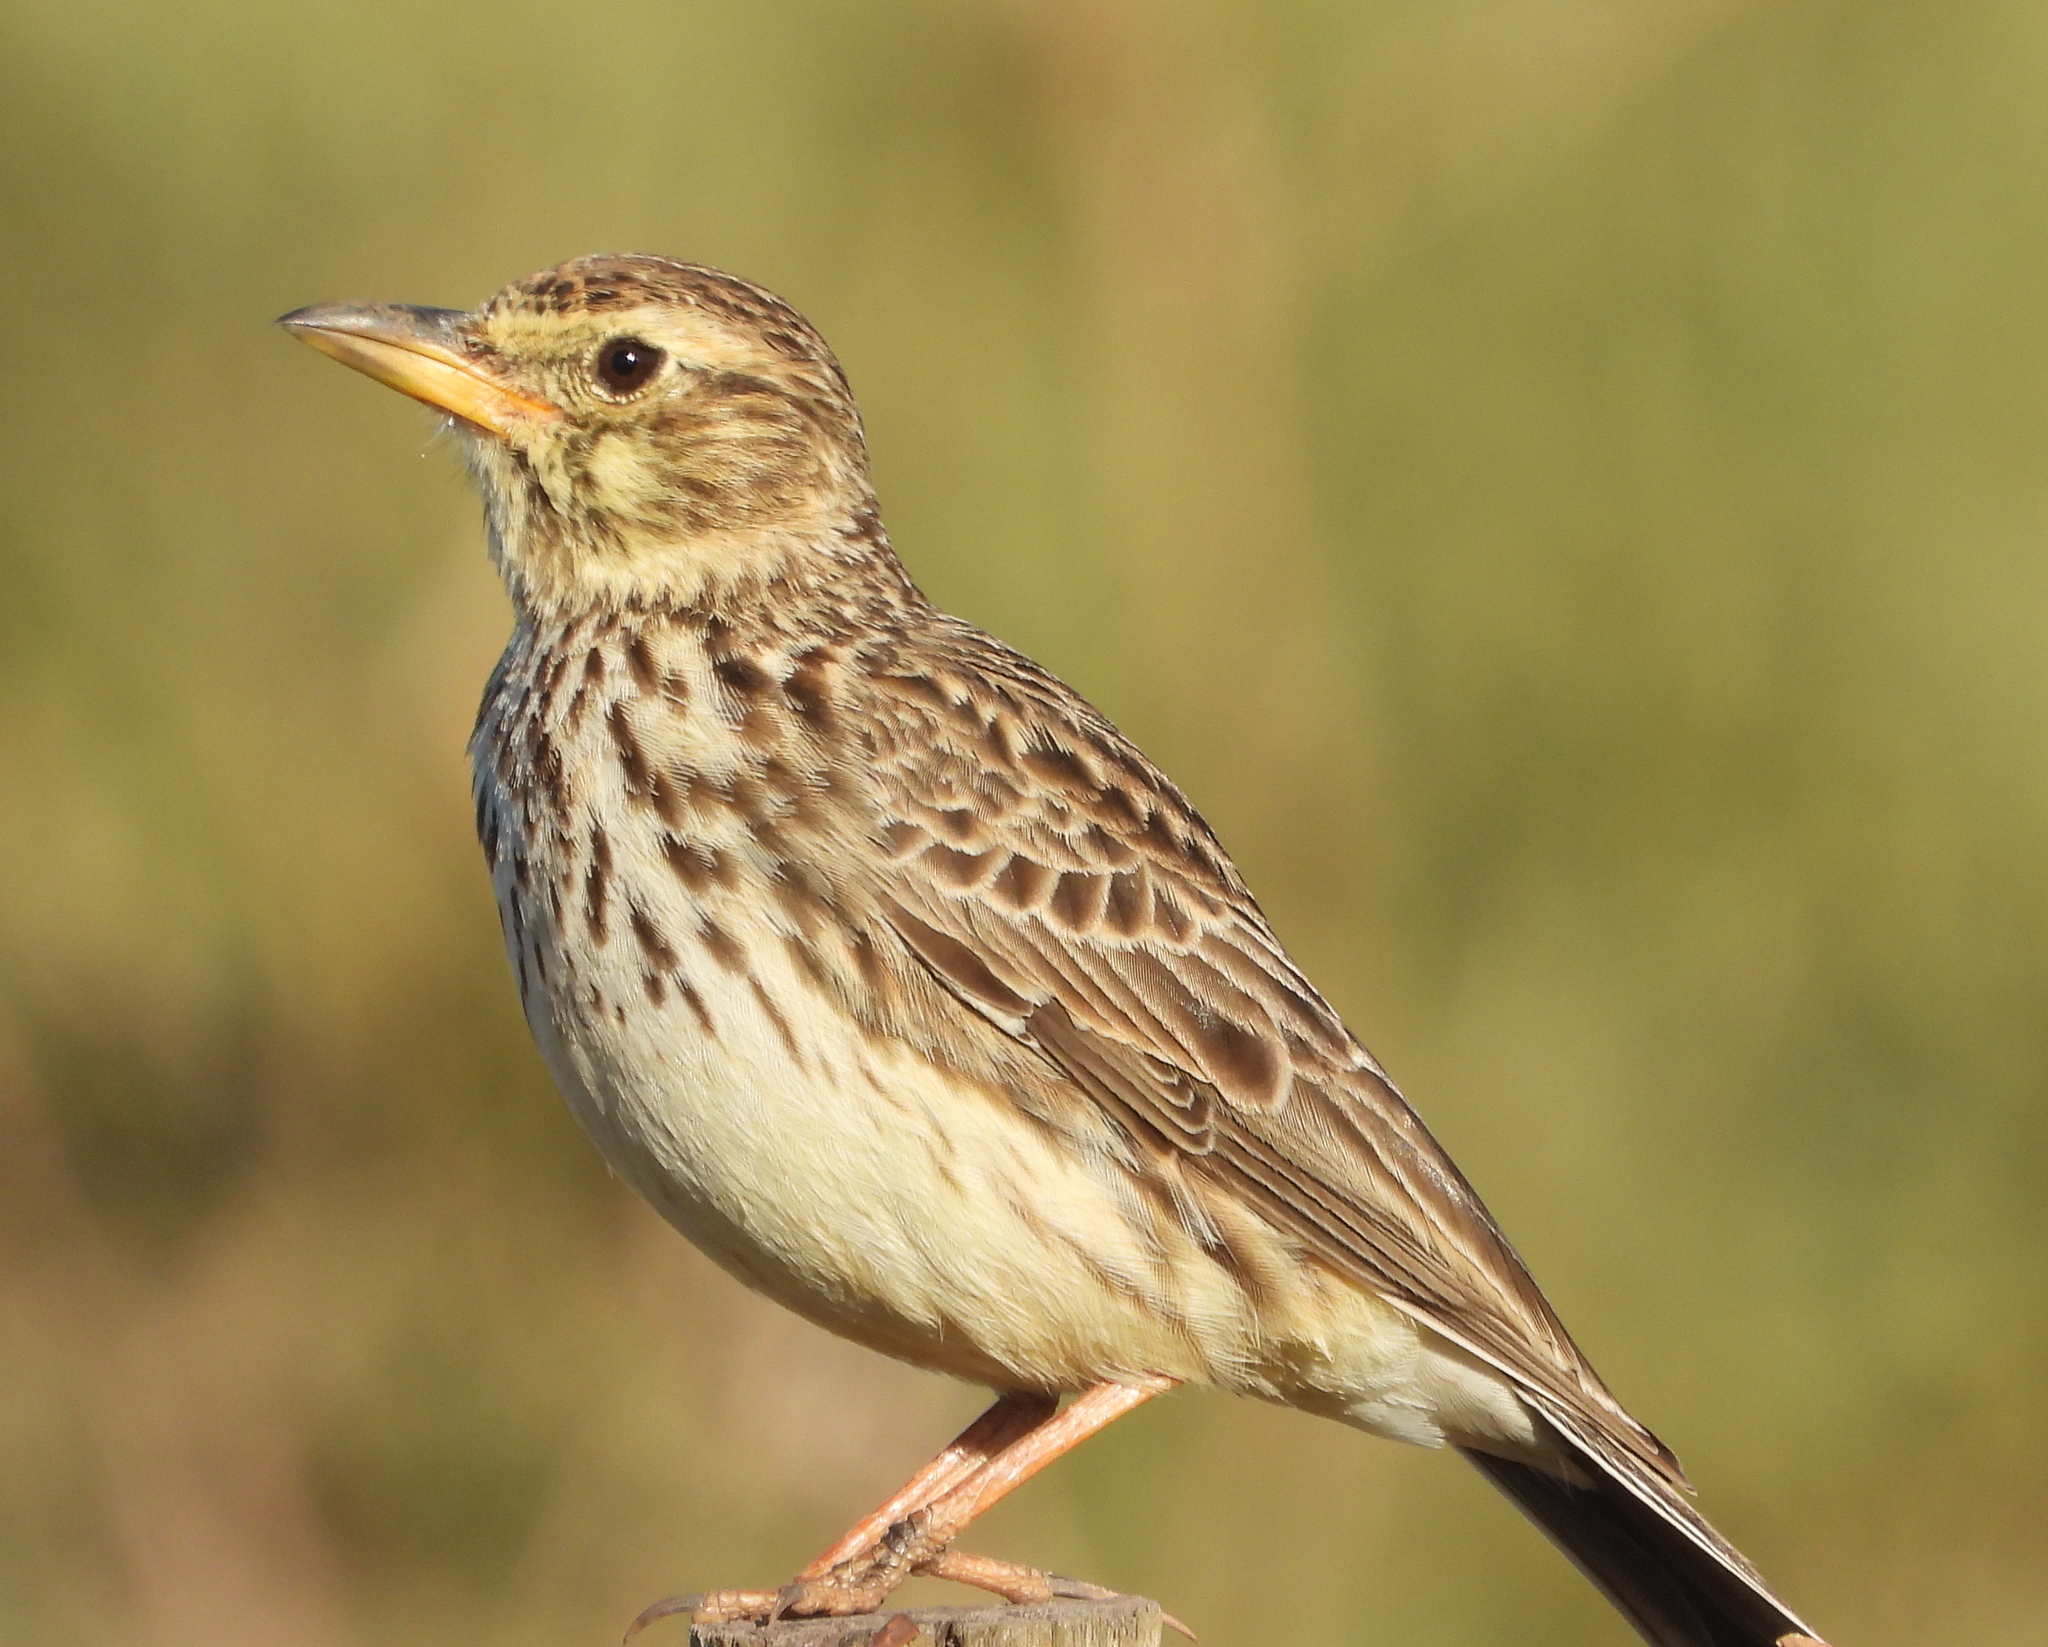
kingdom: Animalia
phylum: Chordata
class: Aves
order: Passeriformes
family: Alaudidae
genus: Galerida
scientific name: Galerida magnirostris
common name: Large-billed lark
